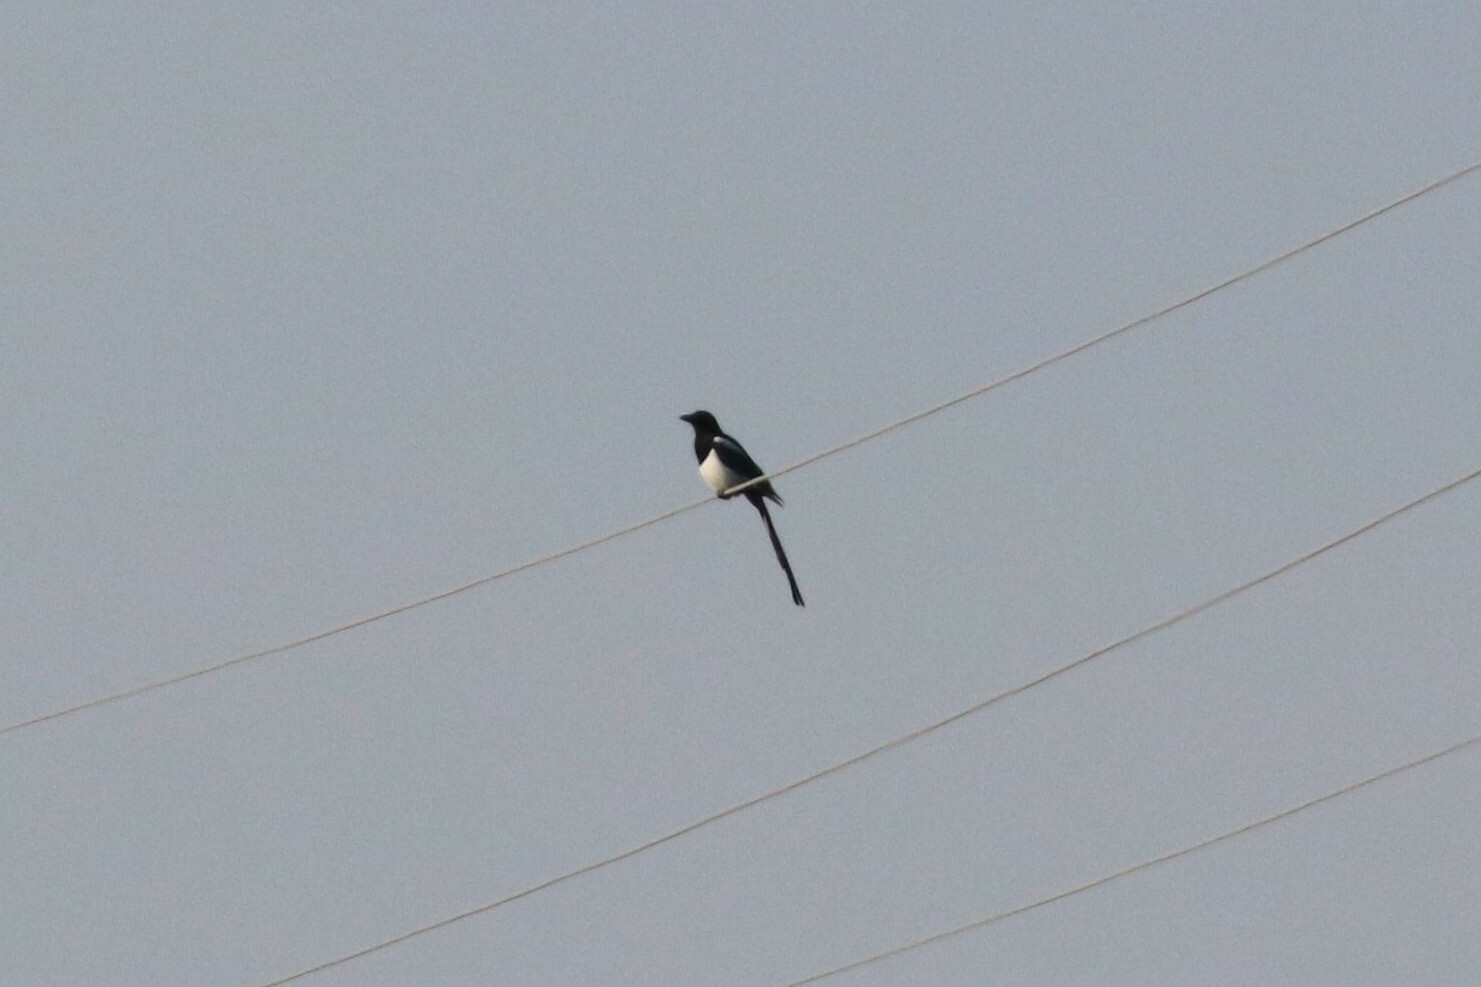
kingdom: Animalia
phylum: Chordata
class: Aves
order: Passeriformes
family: Corvidae
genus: Pica
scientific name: Pica pica
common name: Eurasian magpie
